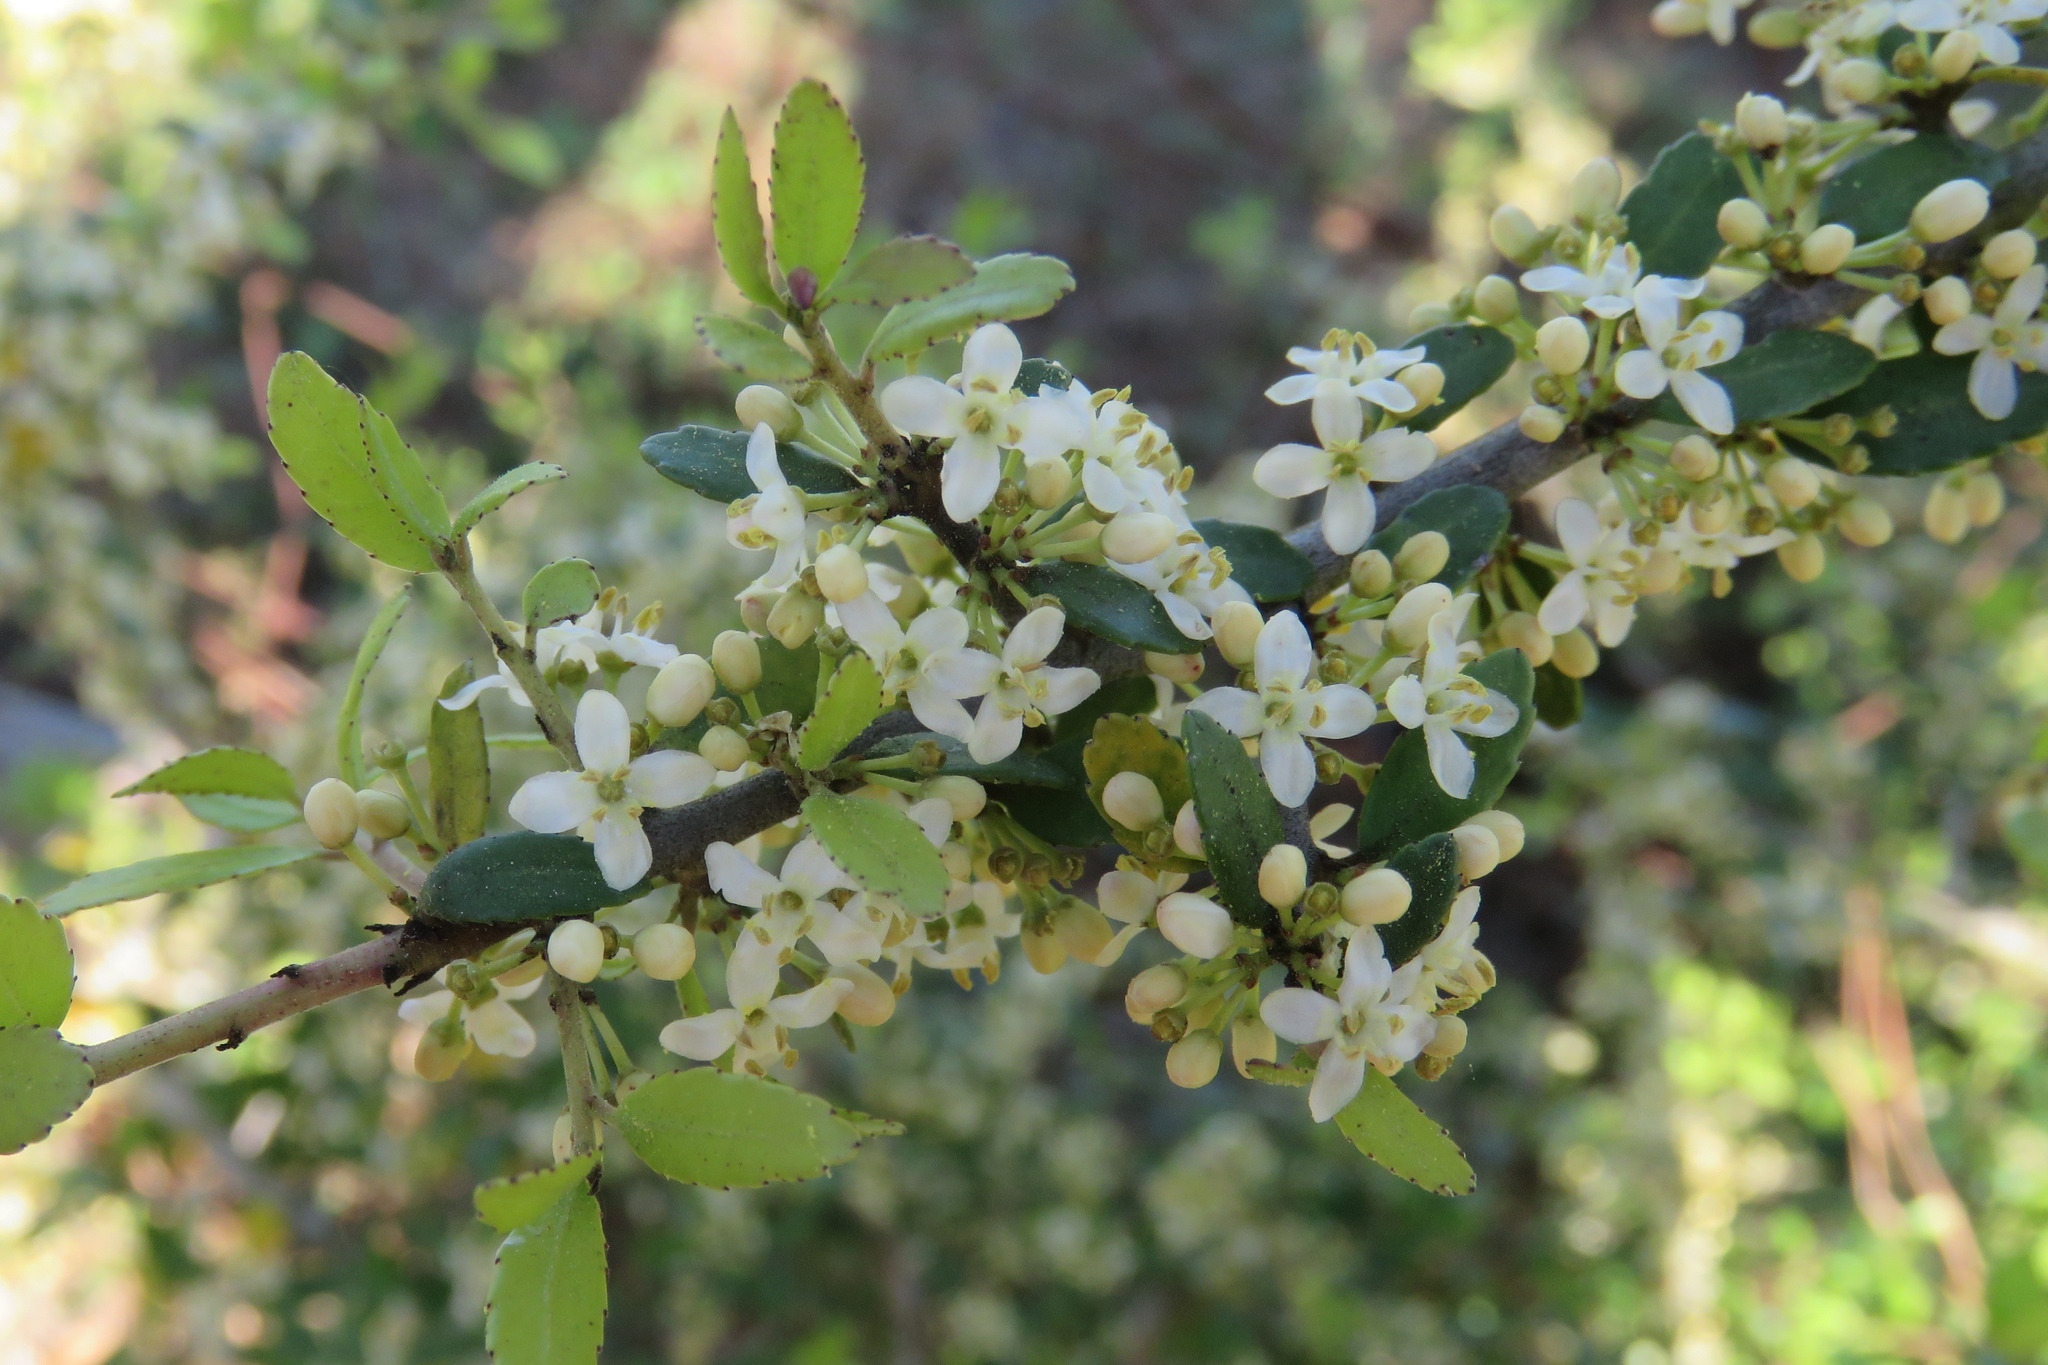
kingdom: Plantae
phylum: Tracheophyta
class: Magnoliopsida
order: Aquifoliales
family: Aquifoliaceae
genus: Ilex
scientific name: Ilex vomitoria
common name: Yaupon holly
